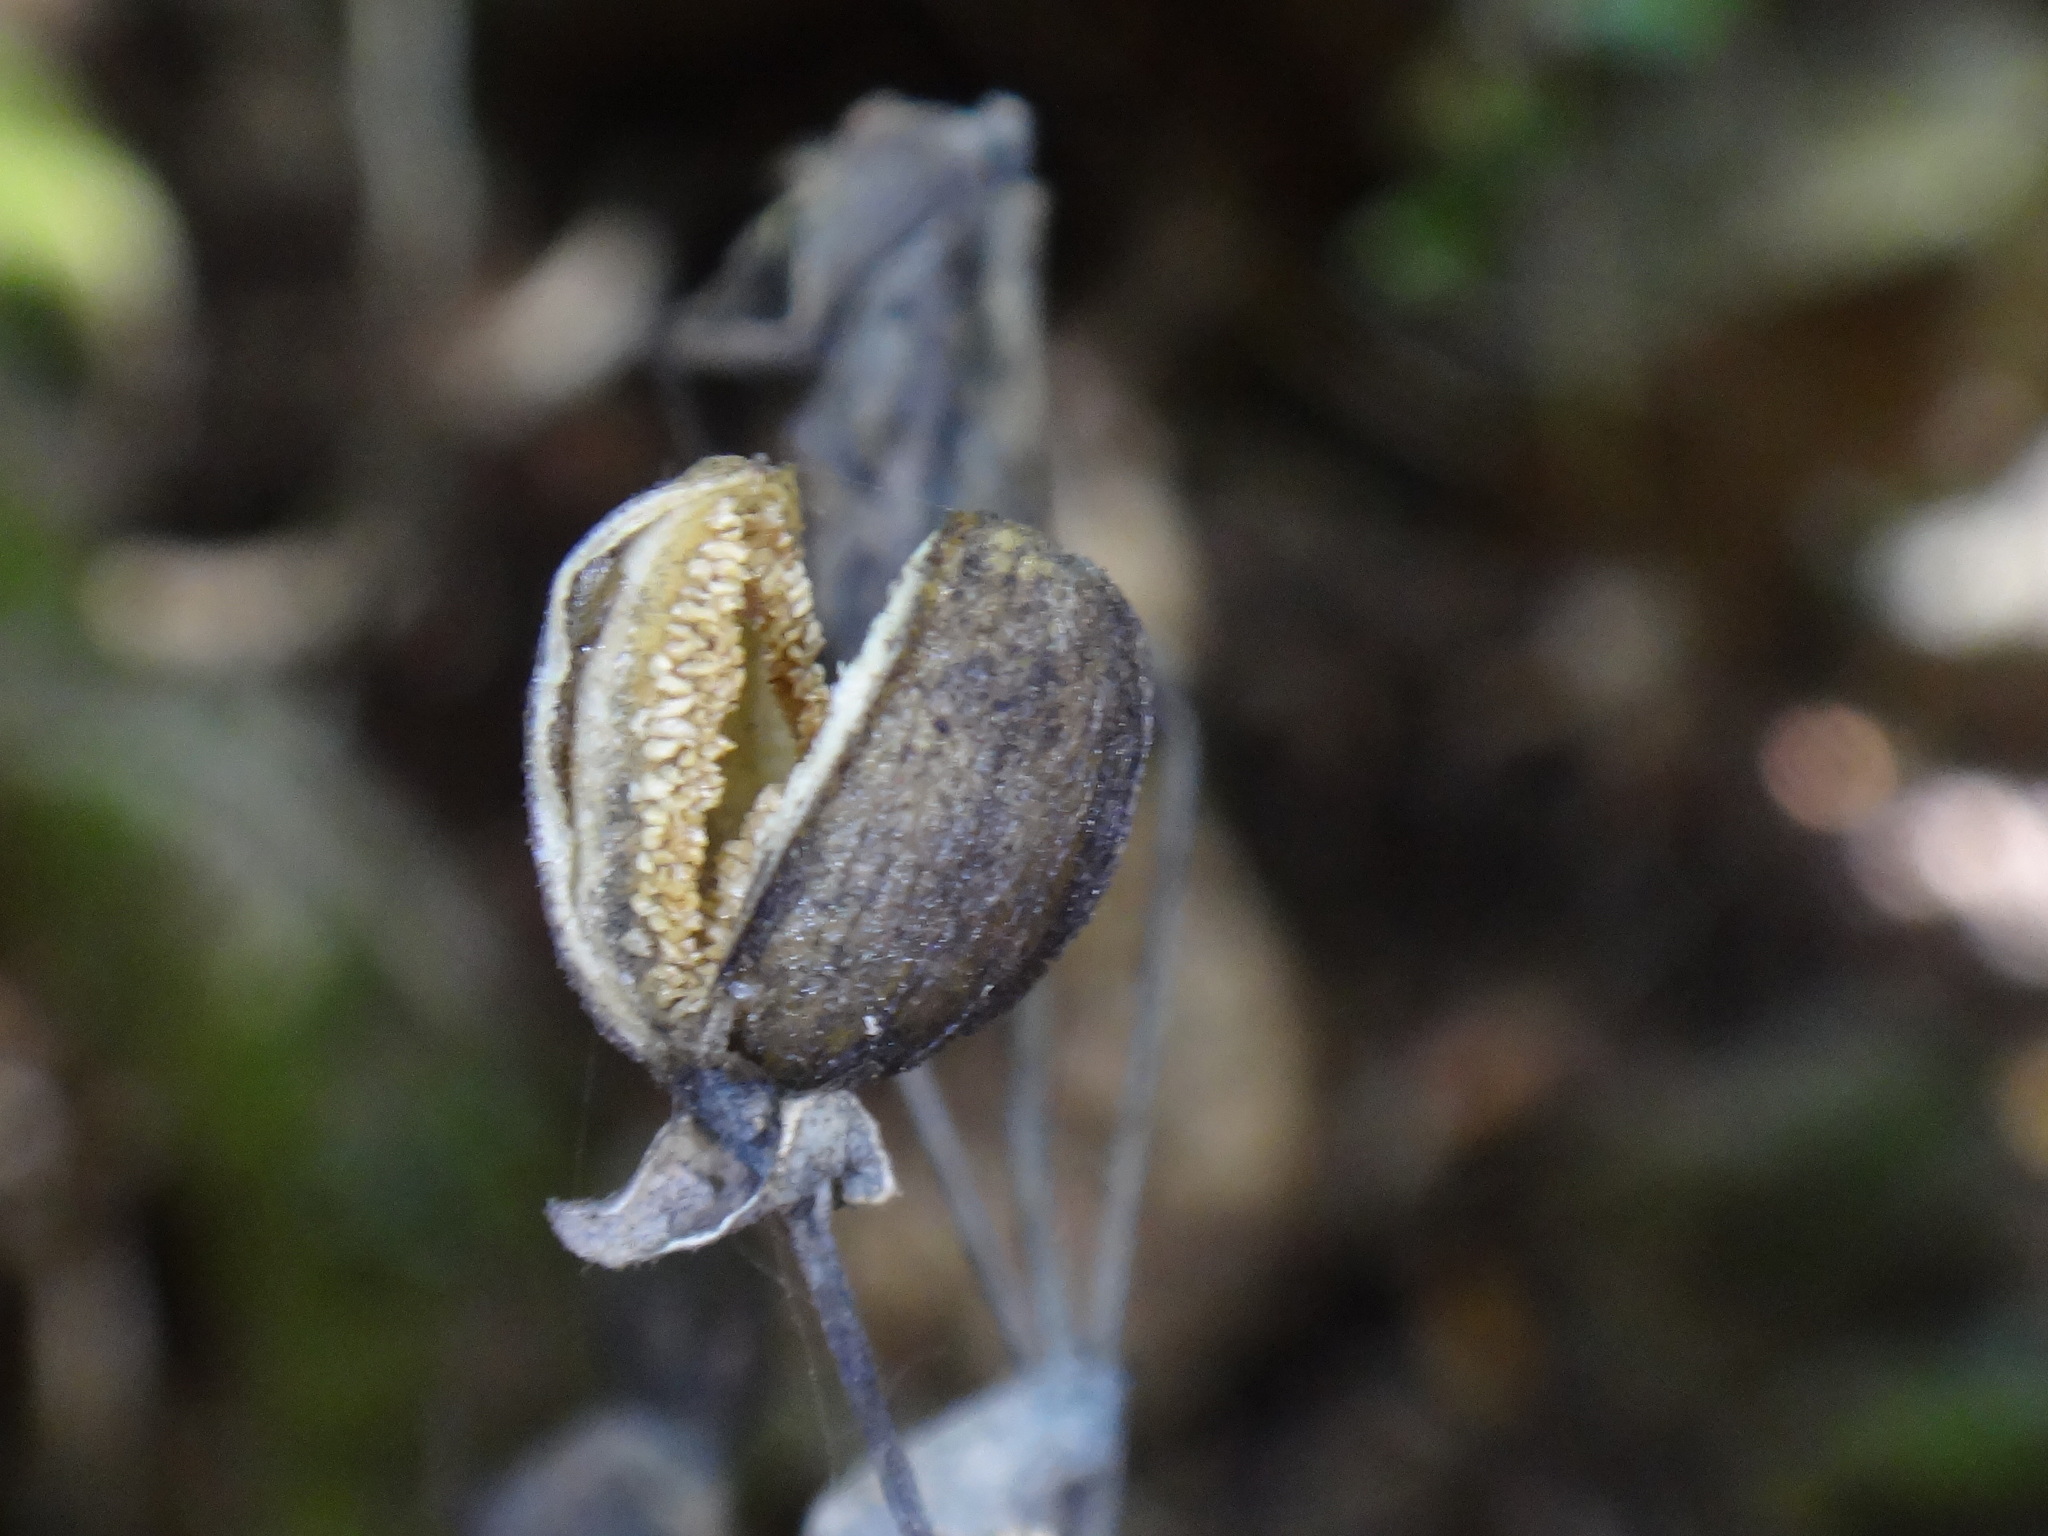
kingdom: Plantae
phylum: Tracheophyta
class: Magnoliopsida
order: Gentianales
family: Gentianaceae
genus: Ixanthus
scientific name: Ixanthus viscosus
